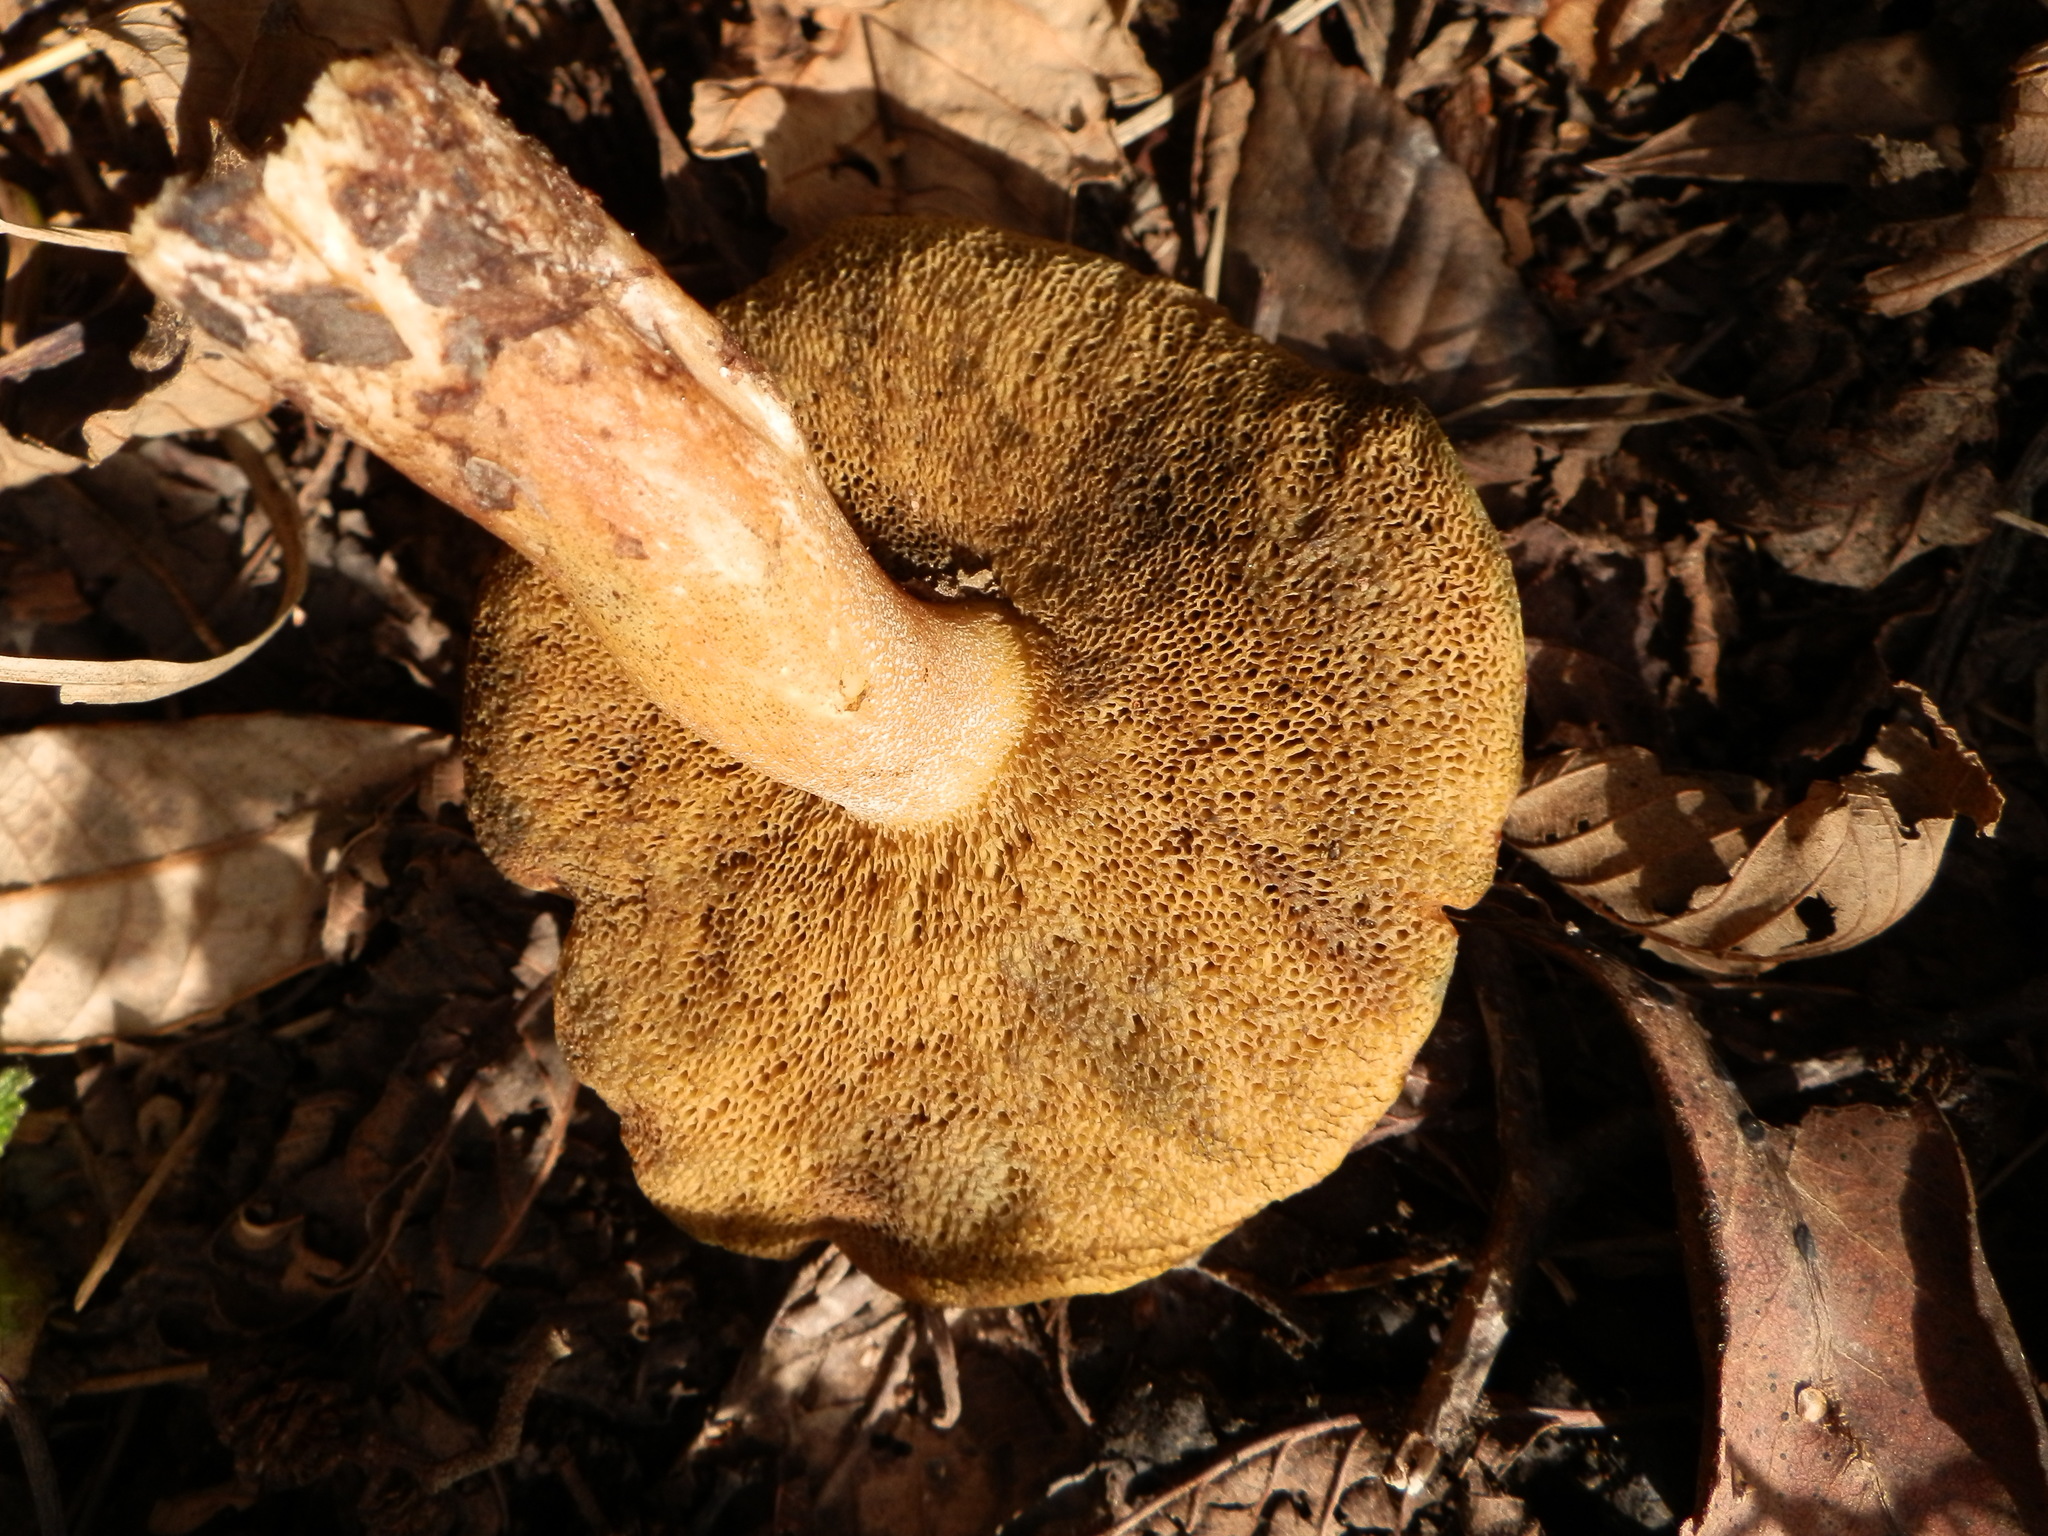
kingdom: Fungi
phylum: Basidiomycota
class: Agaricomycetes
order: Boletales
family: Suillaceae
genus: Suillus
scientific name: Suillus tomentosus
